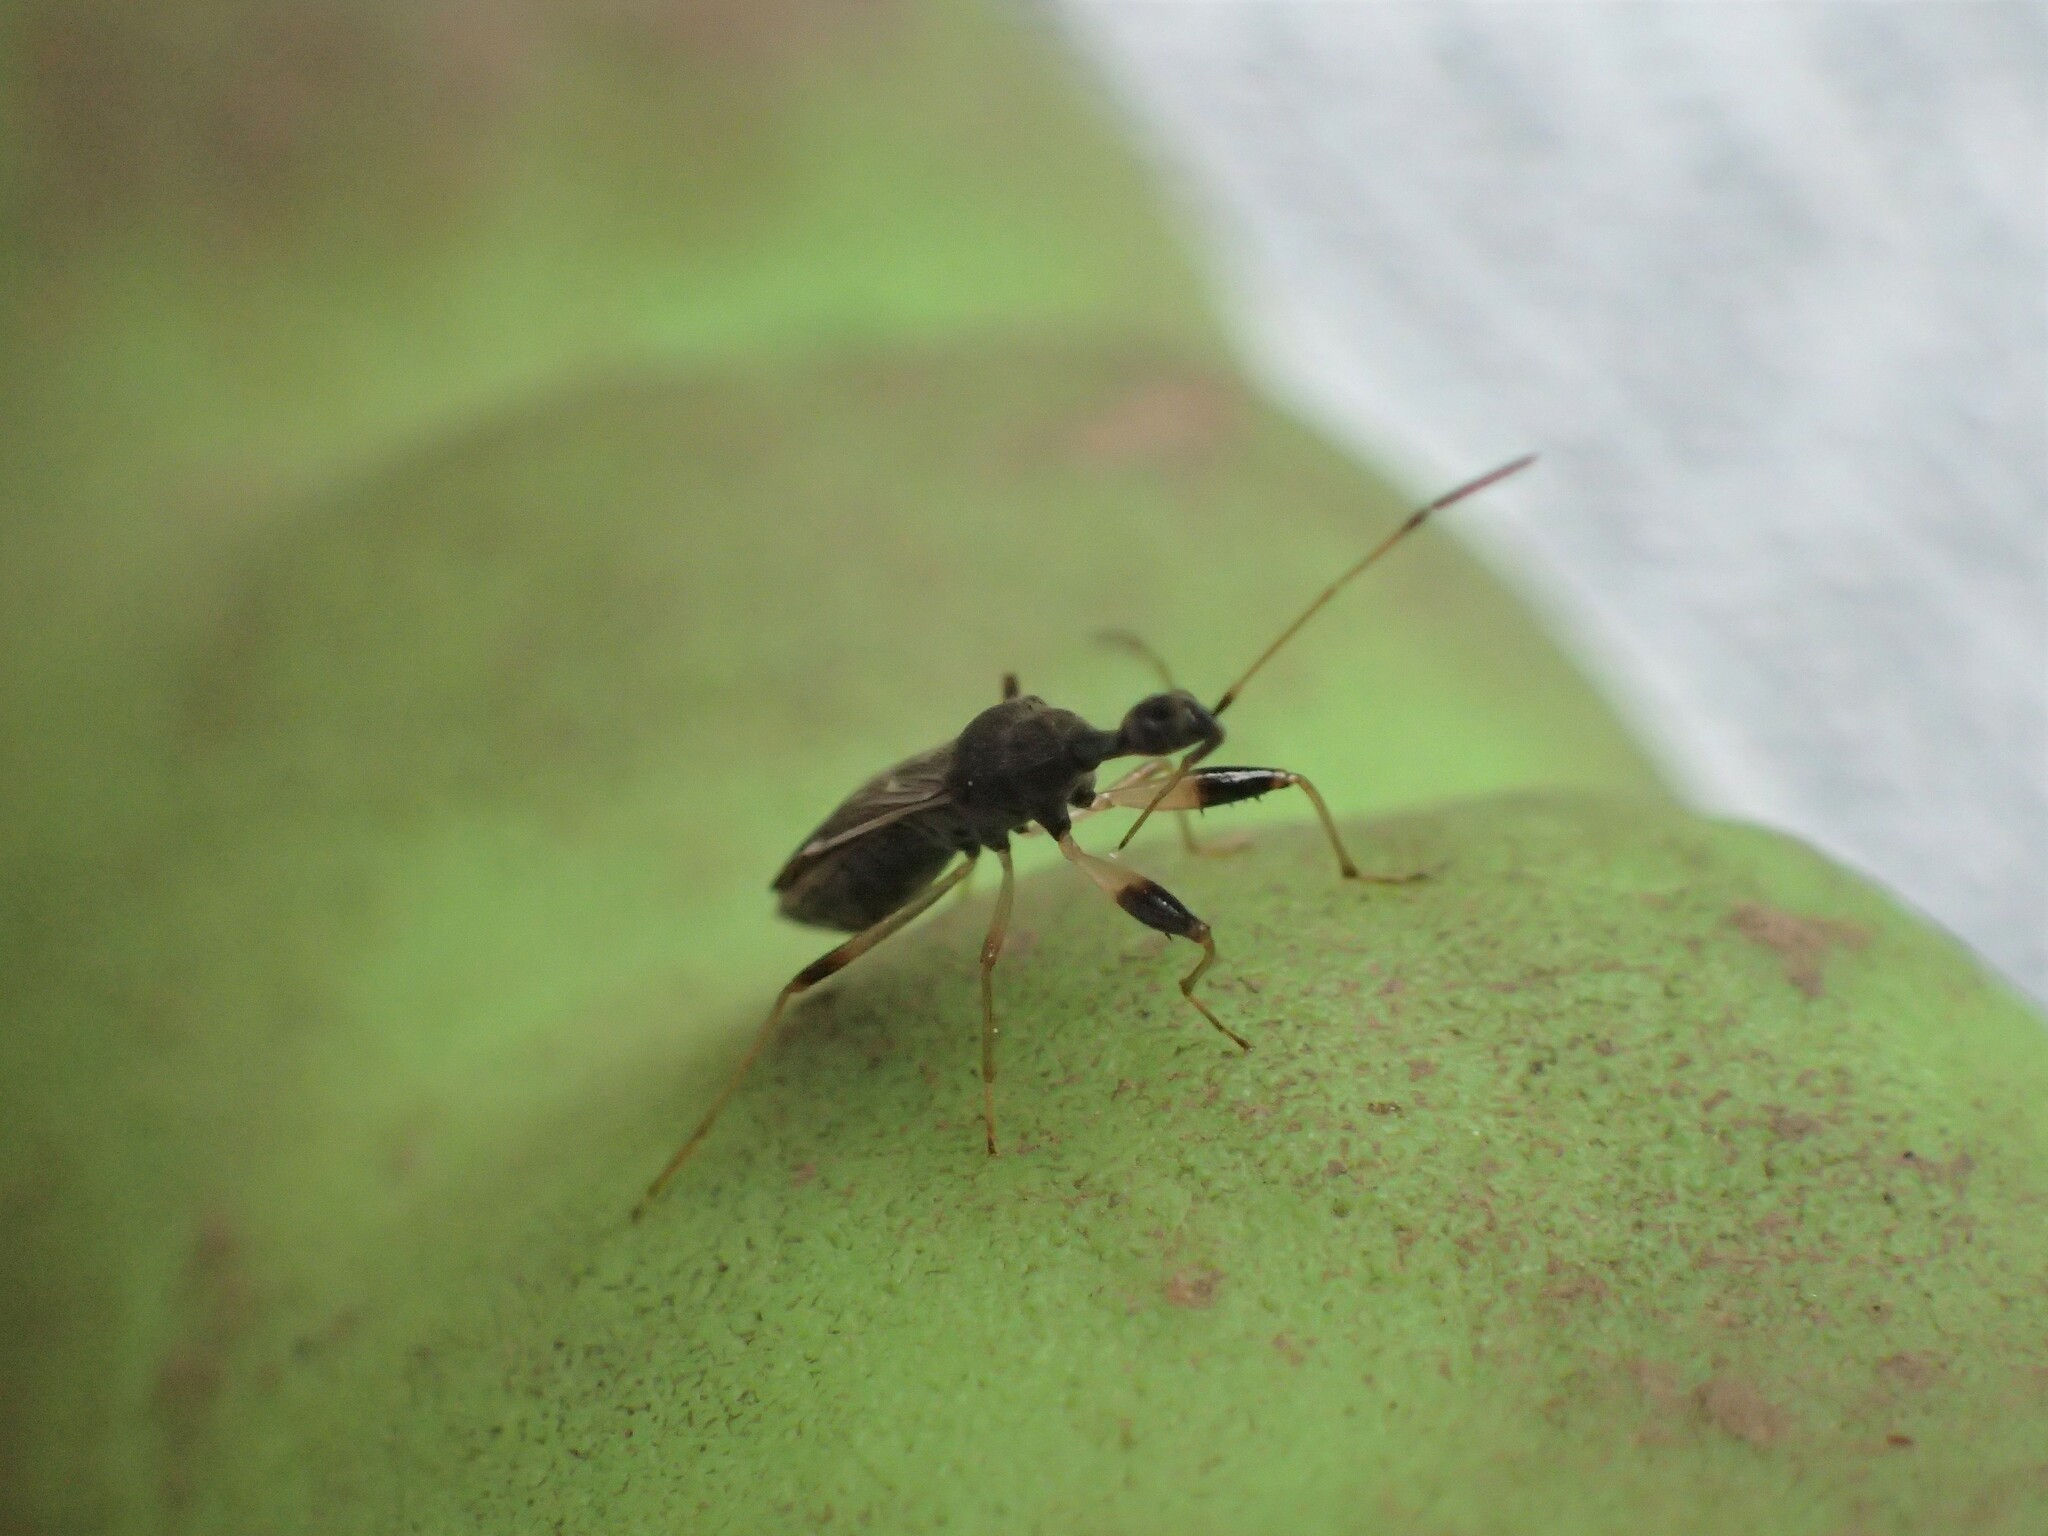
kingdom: Animalia
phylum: Arthropoda
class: Insecta
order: Hemiptera
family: Rhyparochromidae
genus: Myodocha
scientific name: Myodocha serripes
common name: Long-necked seed bug
